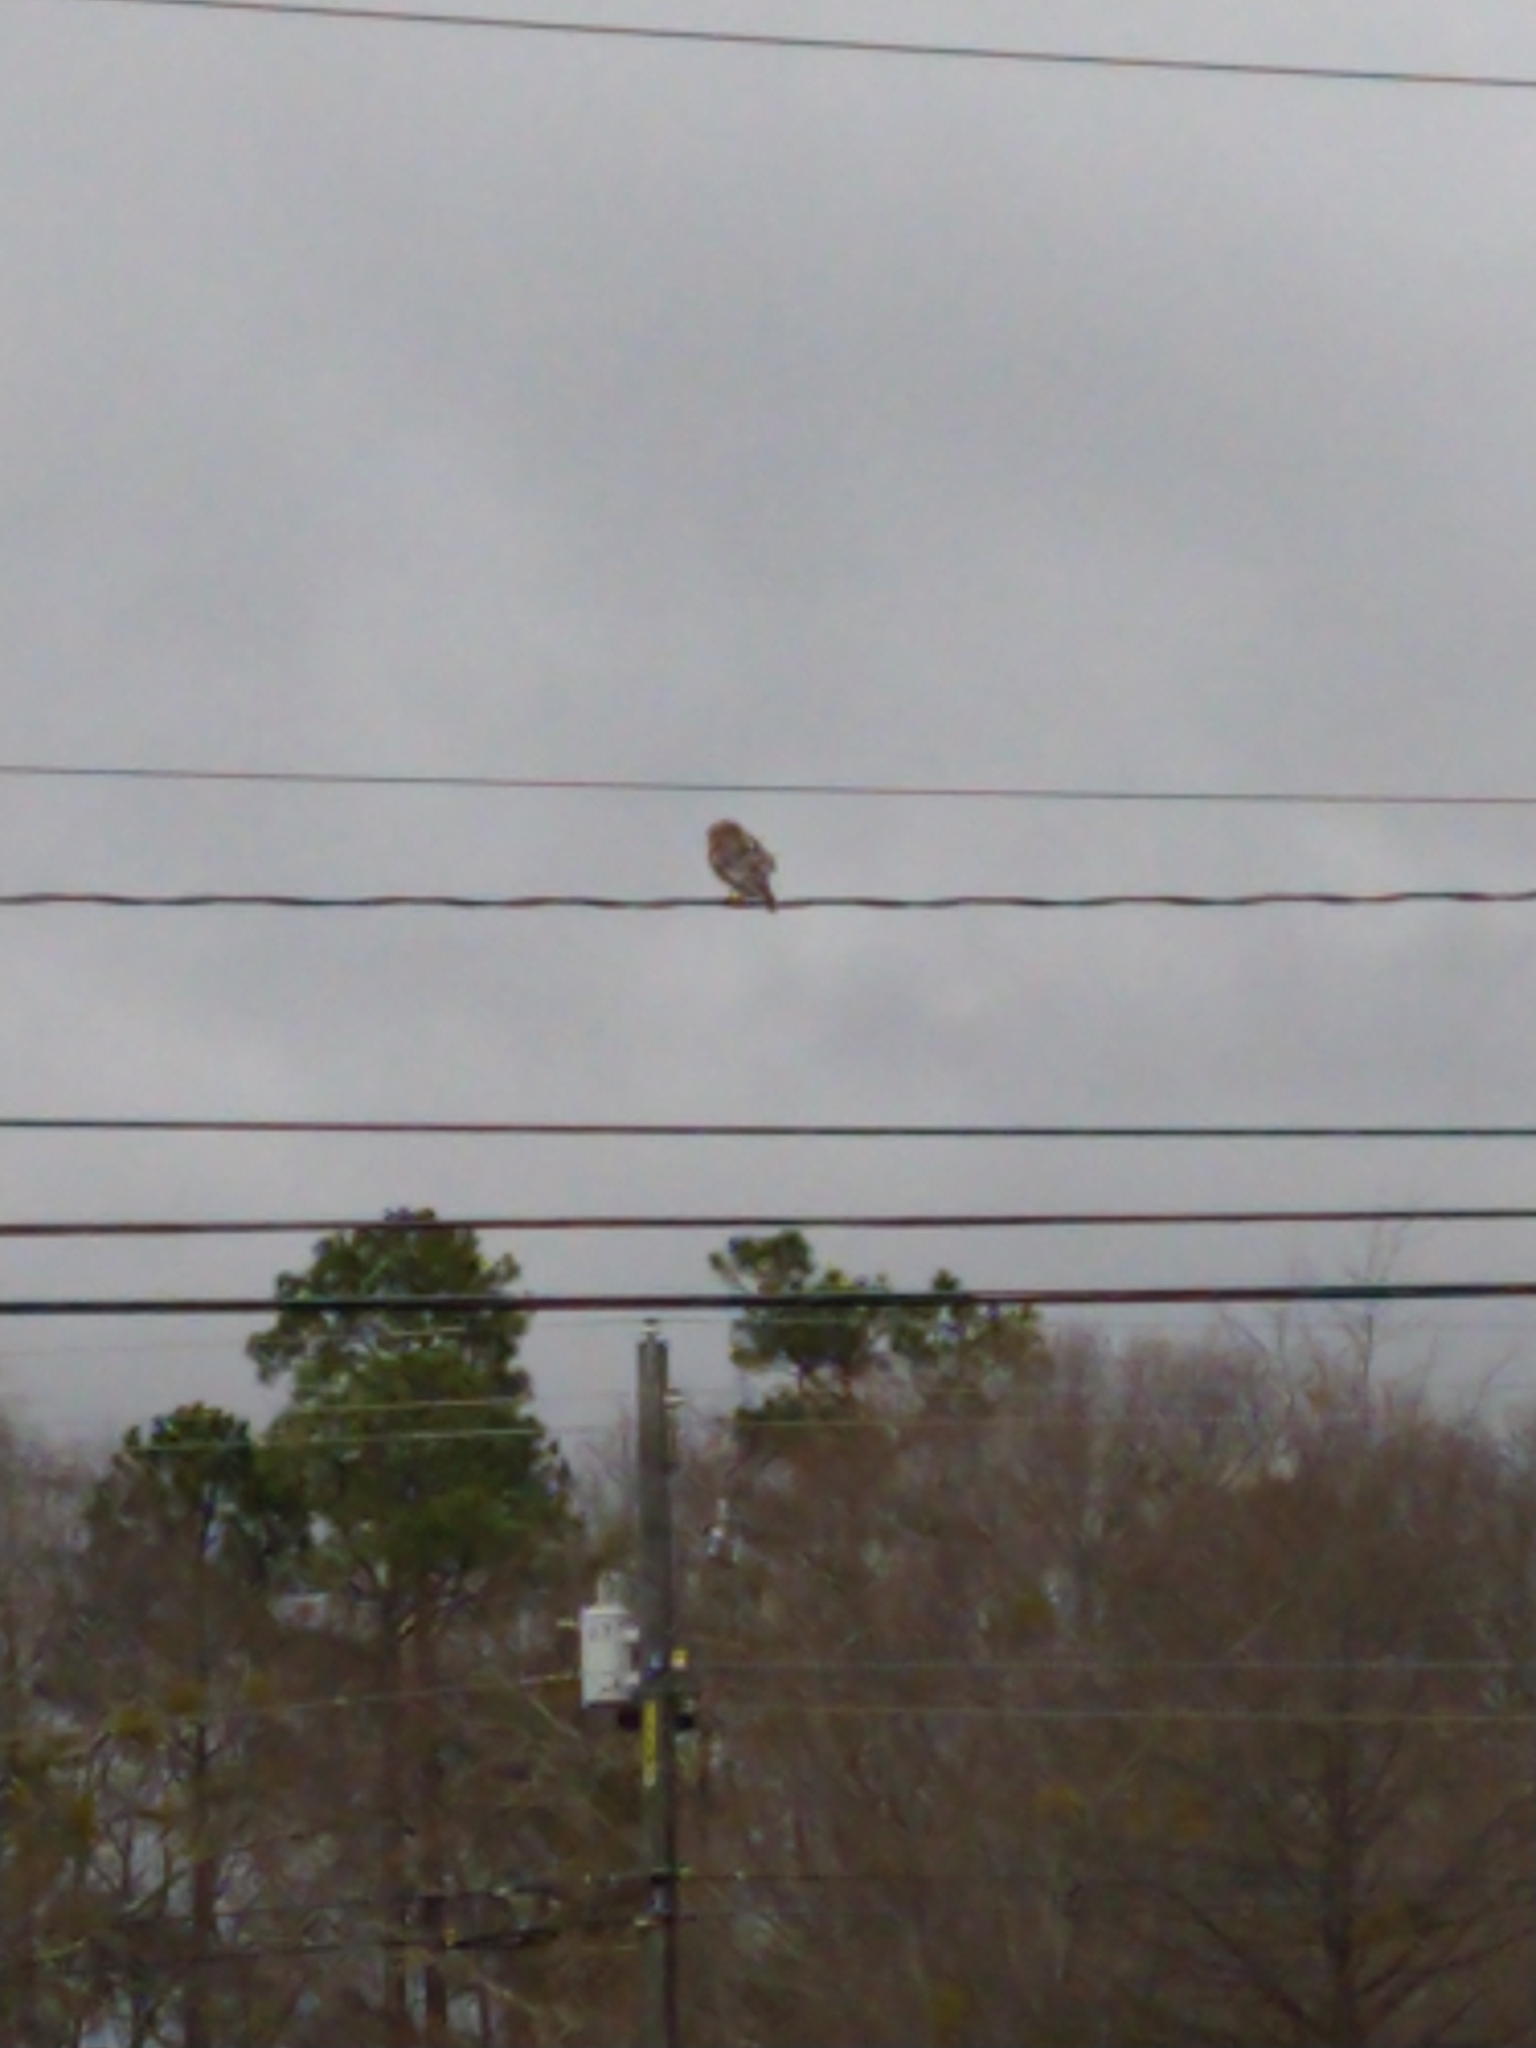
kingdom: Animalia
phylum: Chordata
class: Aves
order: Accipitriformes
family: Accipitridae
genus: Buteo
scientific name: Buteo lineatus
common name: Red-shouldered hawk
